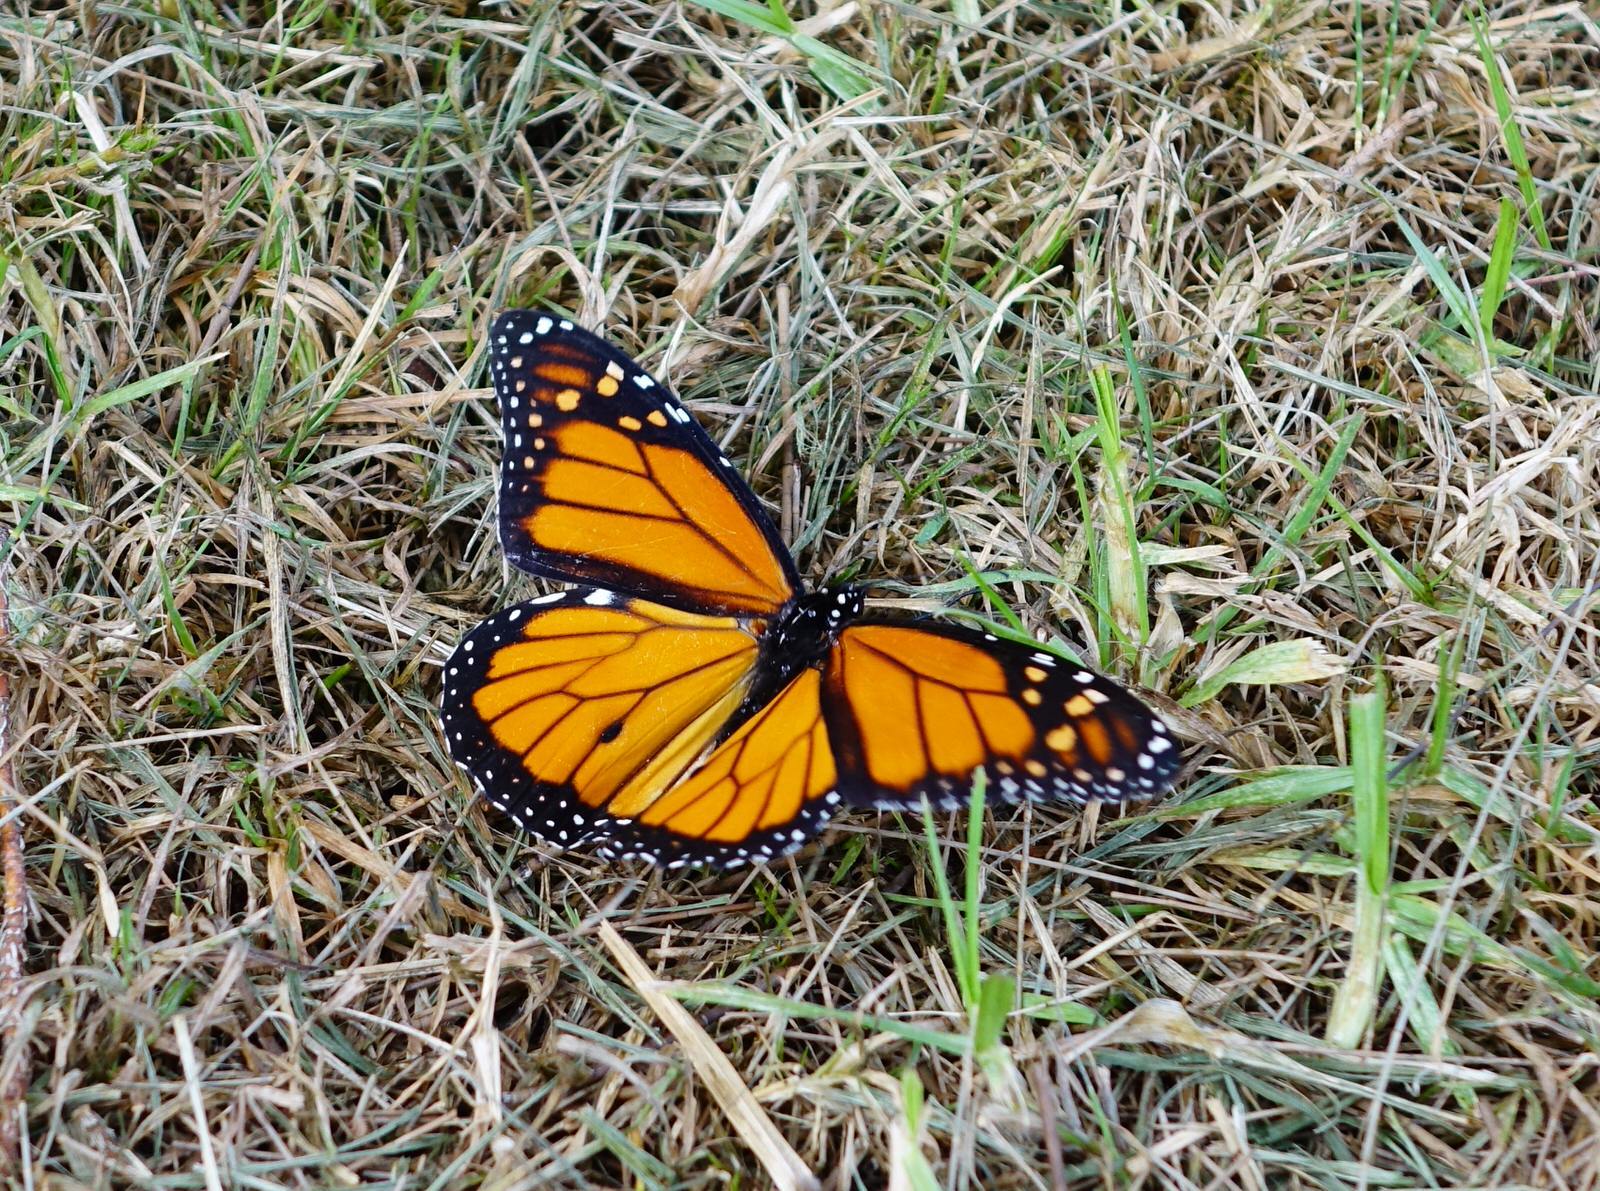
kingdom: Animalia
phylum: Arthropoda
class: Insecta
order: Lepidoptera
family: Nymphalidae
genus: Danaus
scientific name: Danaus plexippus
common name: Monarch
